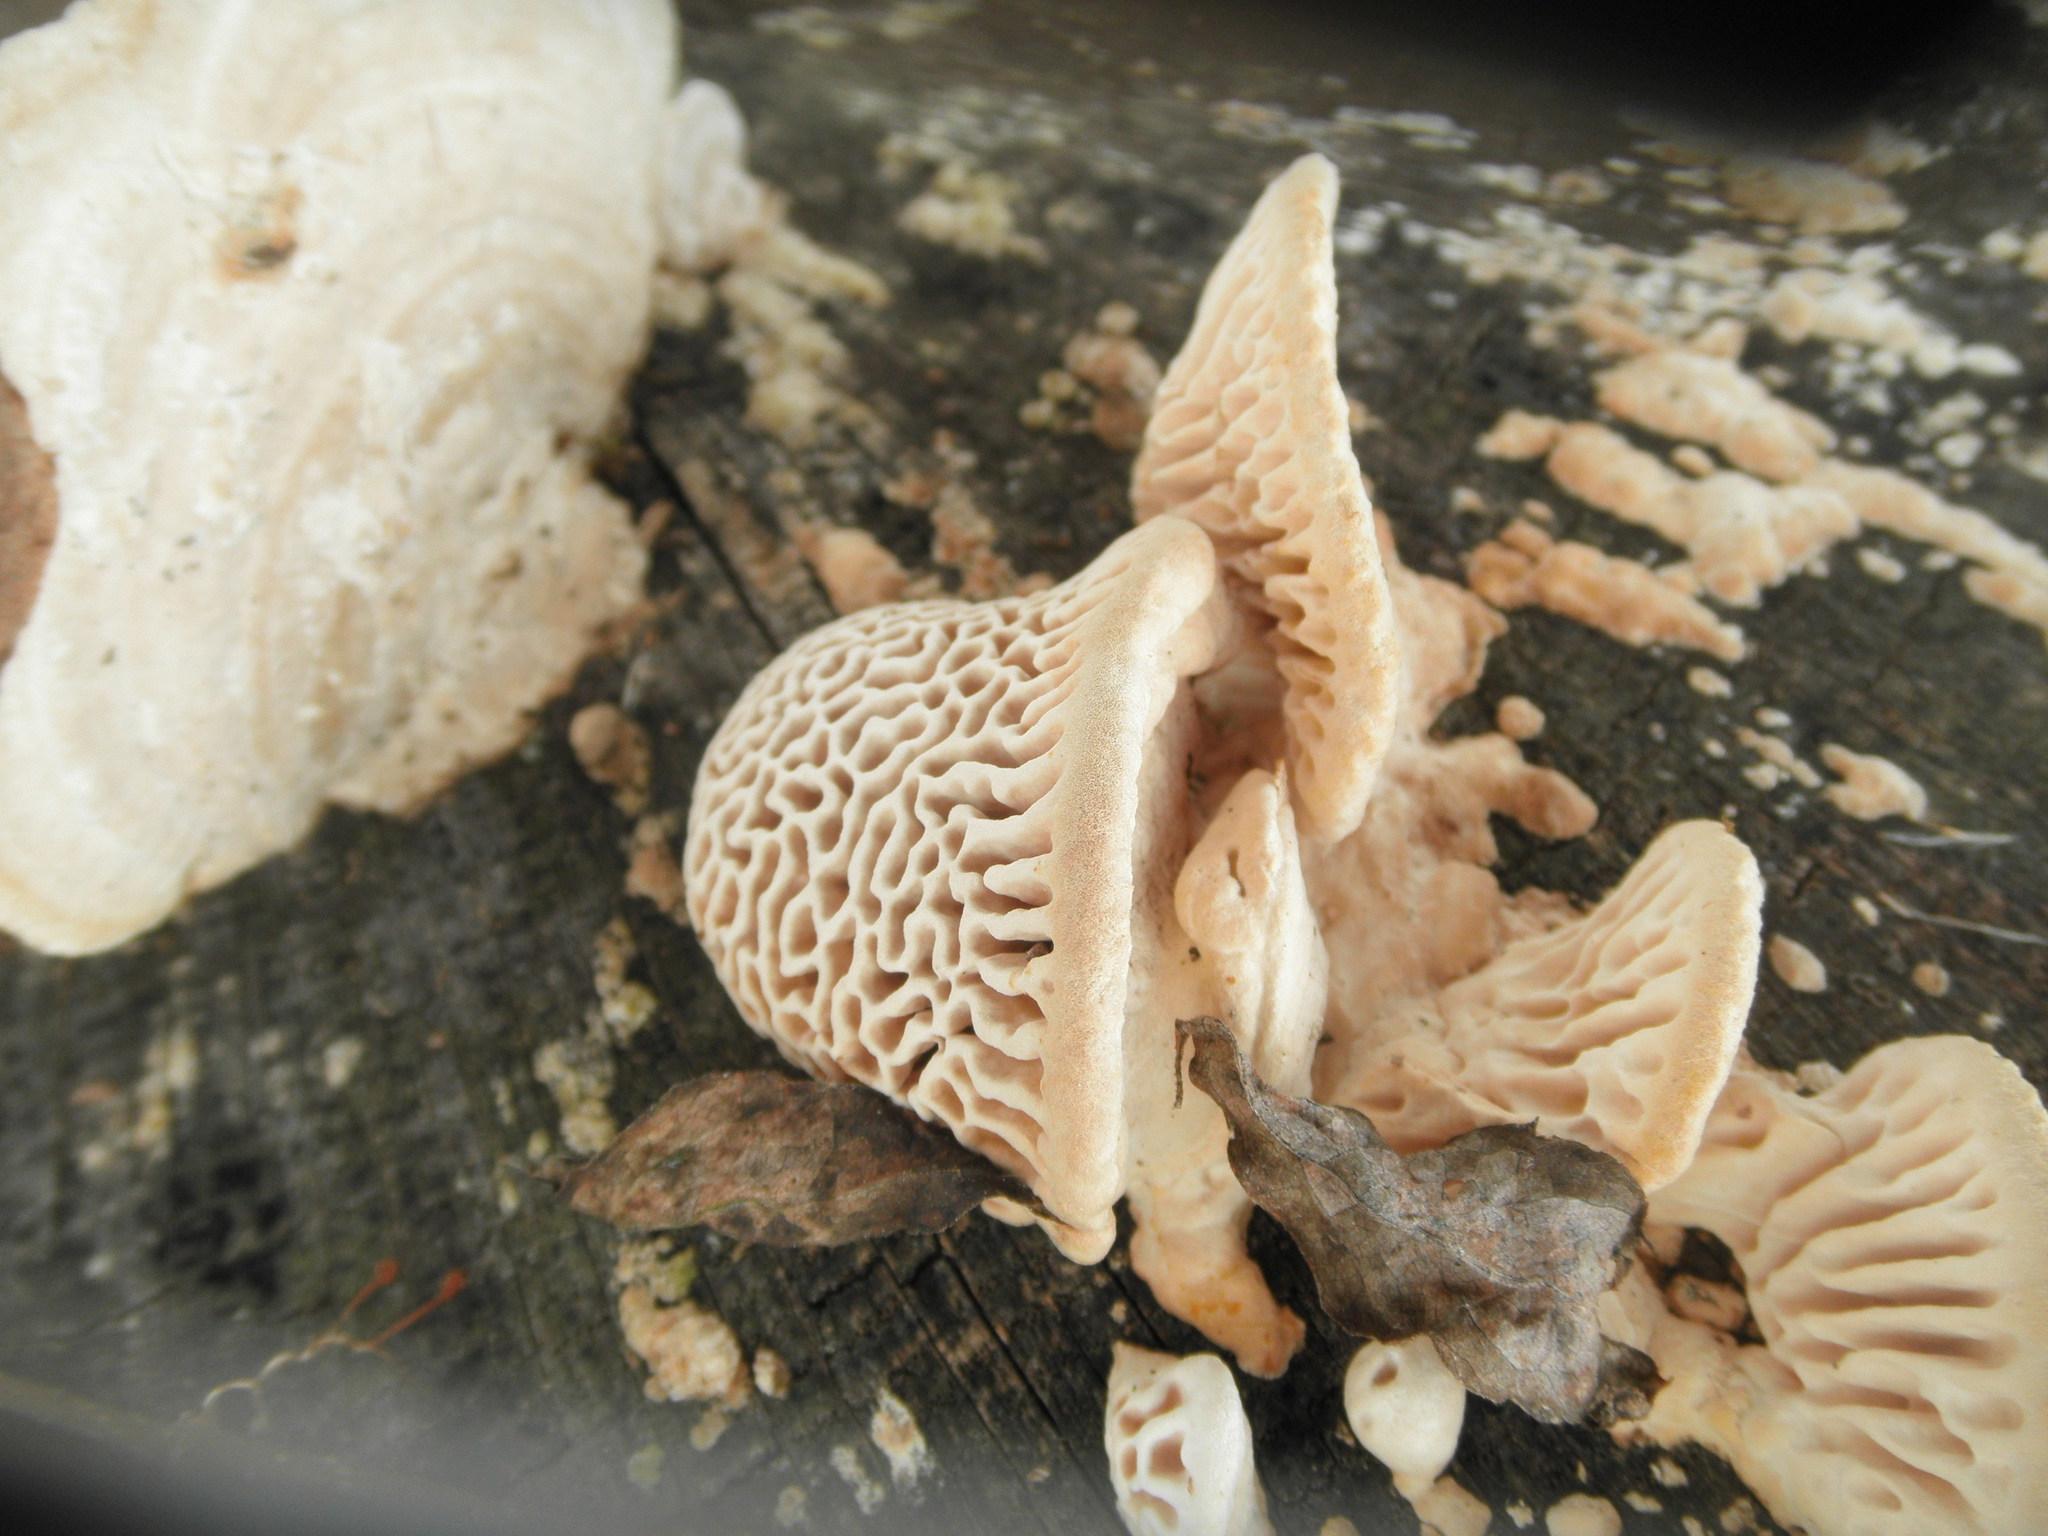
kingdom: Fungi
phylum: Basidiomycota
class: Agaricomycetes
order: Polyporales
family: Fomitopsidaceae
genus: Fomitopsis
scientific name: Fomitopsis
